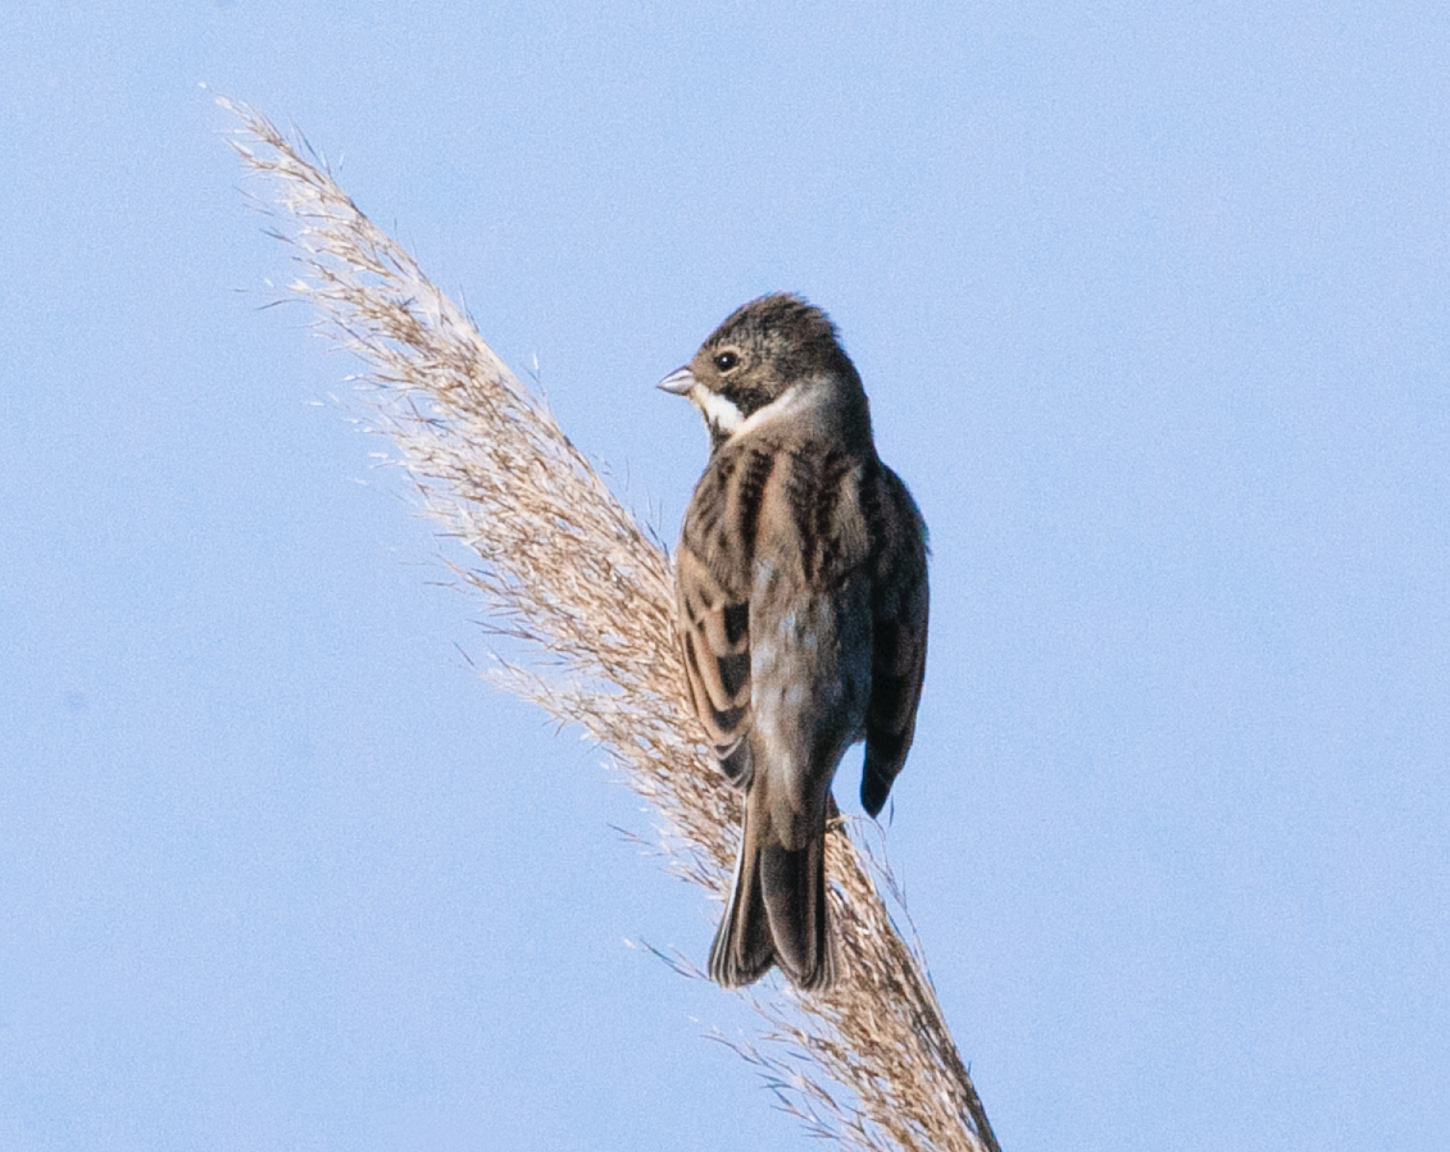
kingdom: Animalia
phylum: Chordata
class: Aves
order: Passeriformes
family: Emberizidae
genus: Emberiza
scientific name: Emberiza schoeniclus
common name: Reed bunting
